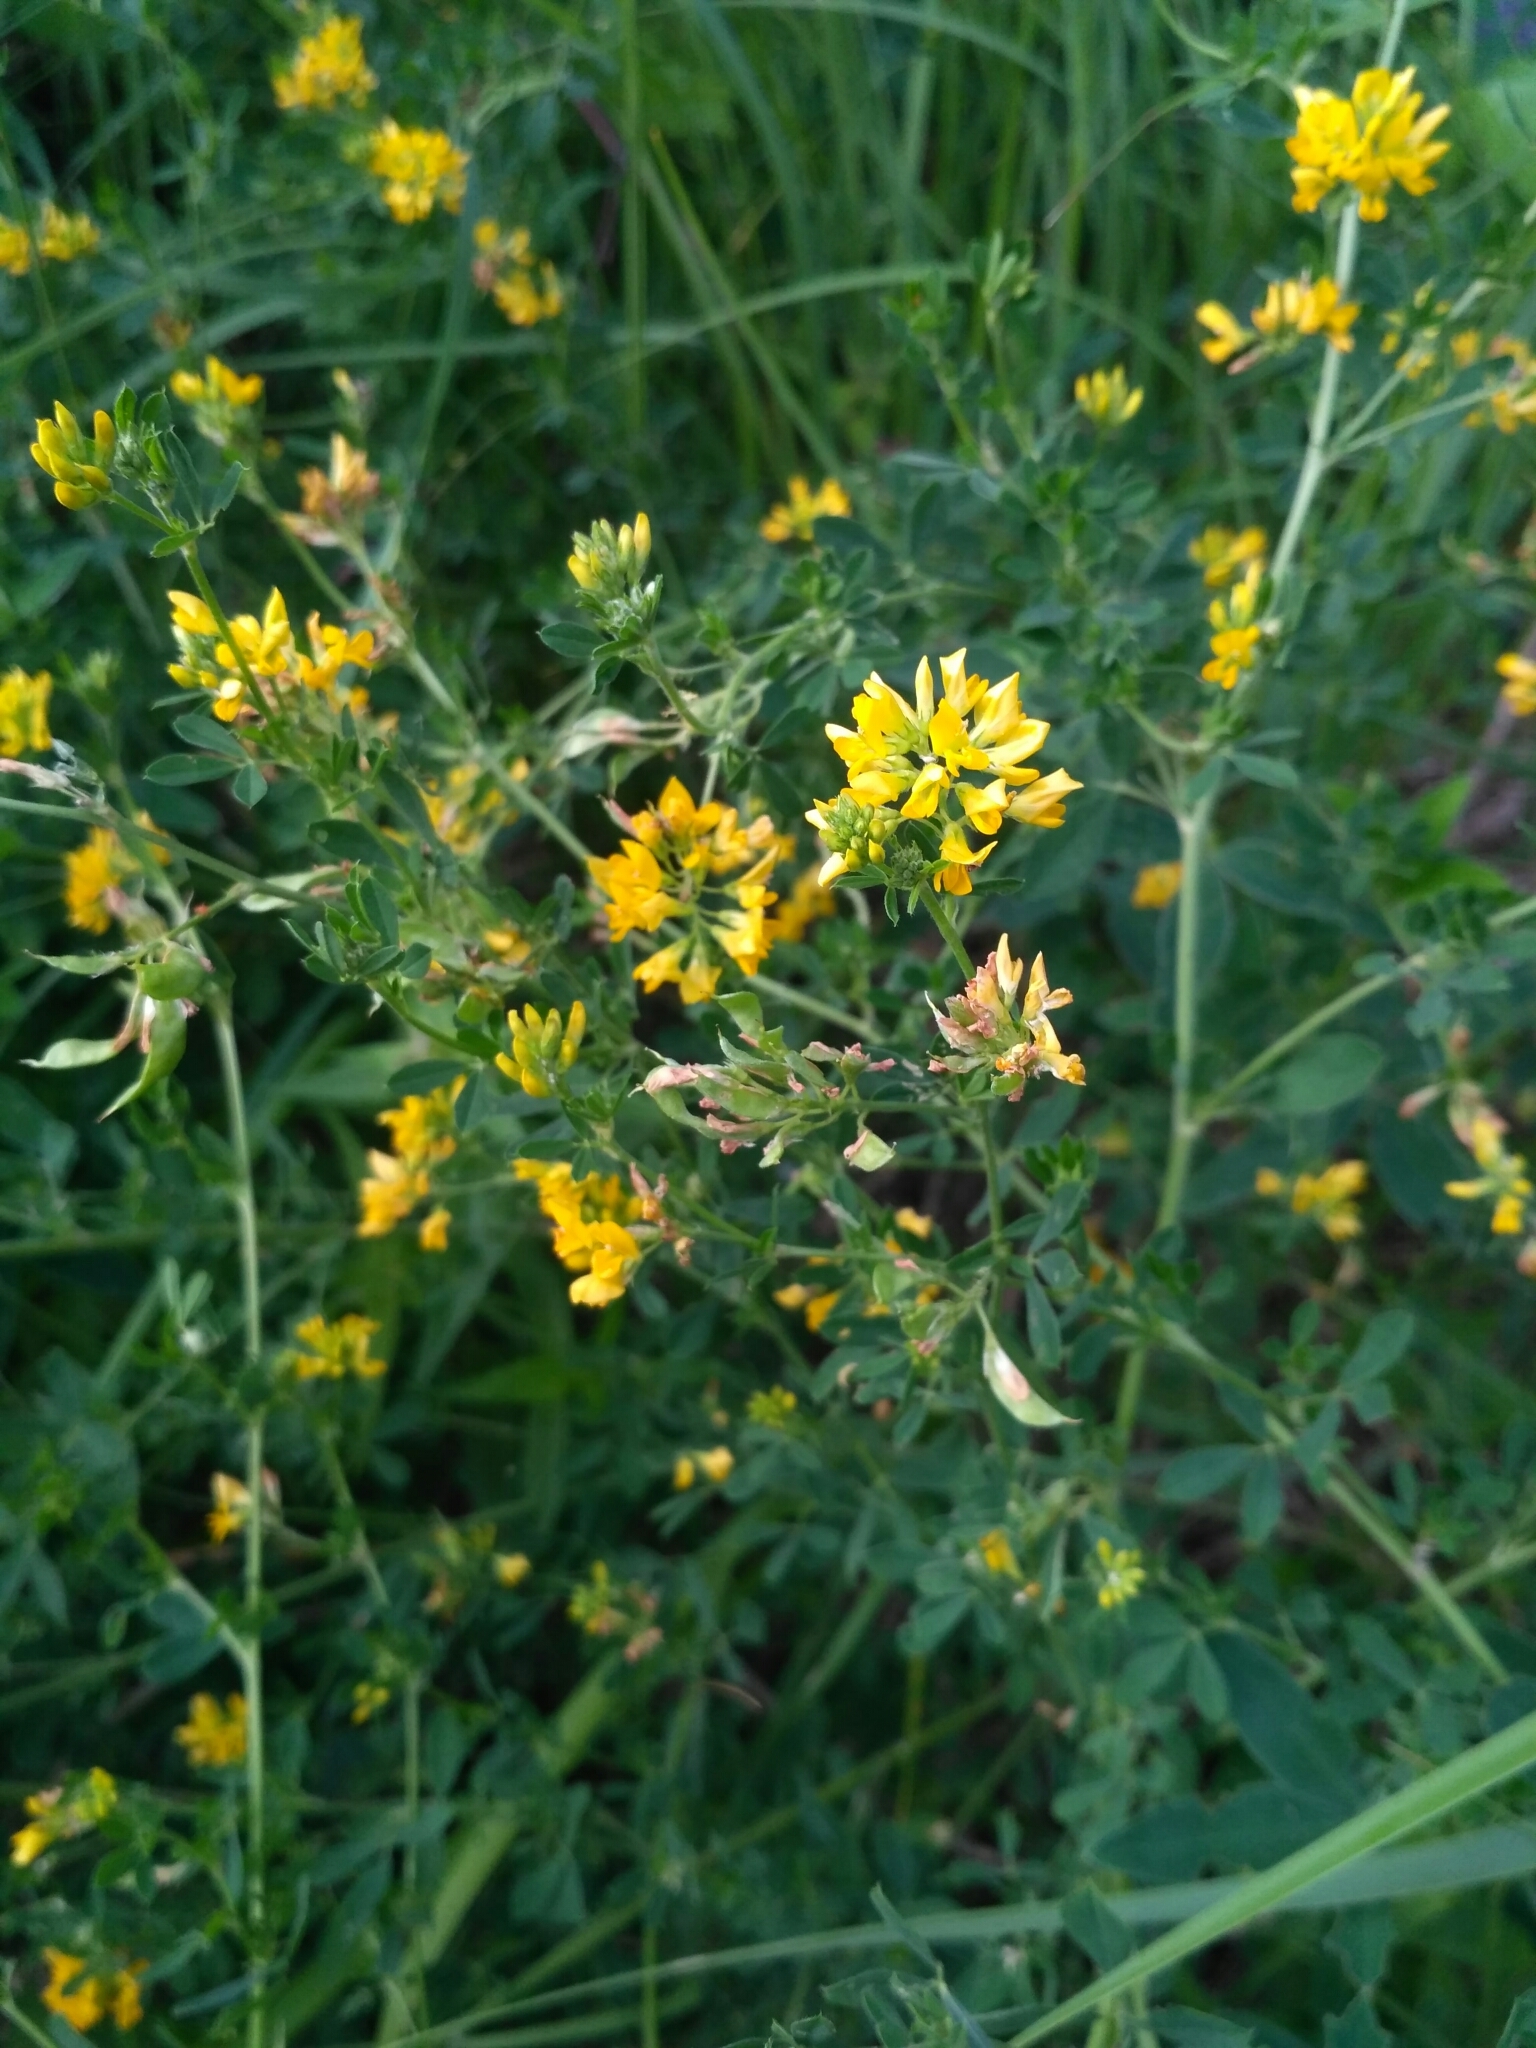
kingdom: Plantae
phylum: Tracheophyta
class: Magnoliopsida
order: Fabales
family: Fabaceae
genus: Medicago
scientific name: Medicago falcata
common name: Sickle medick
